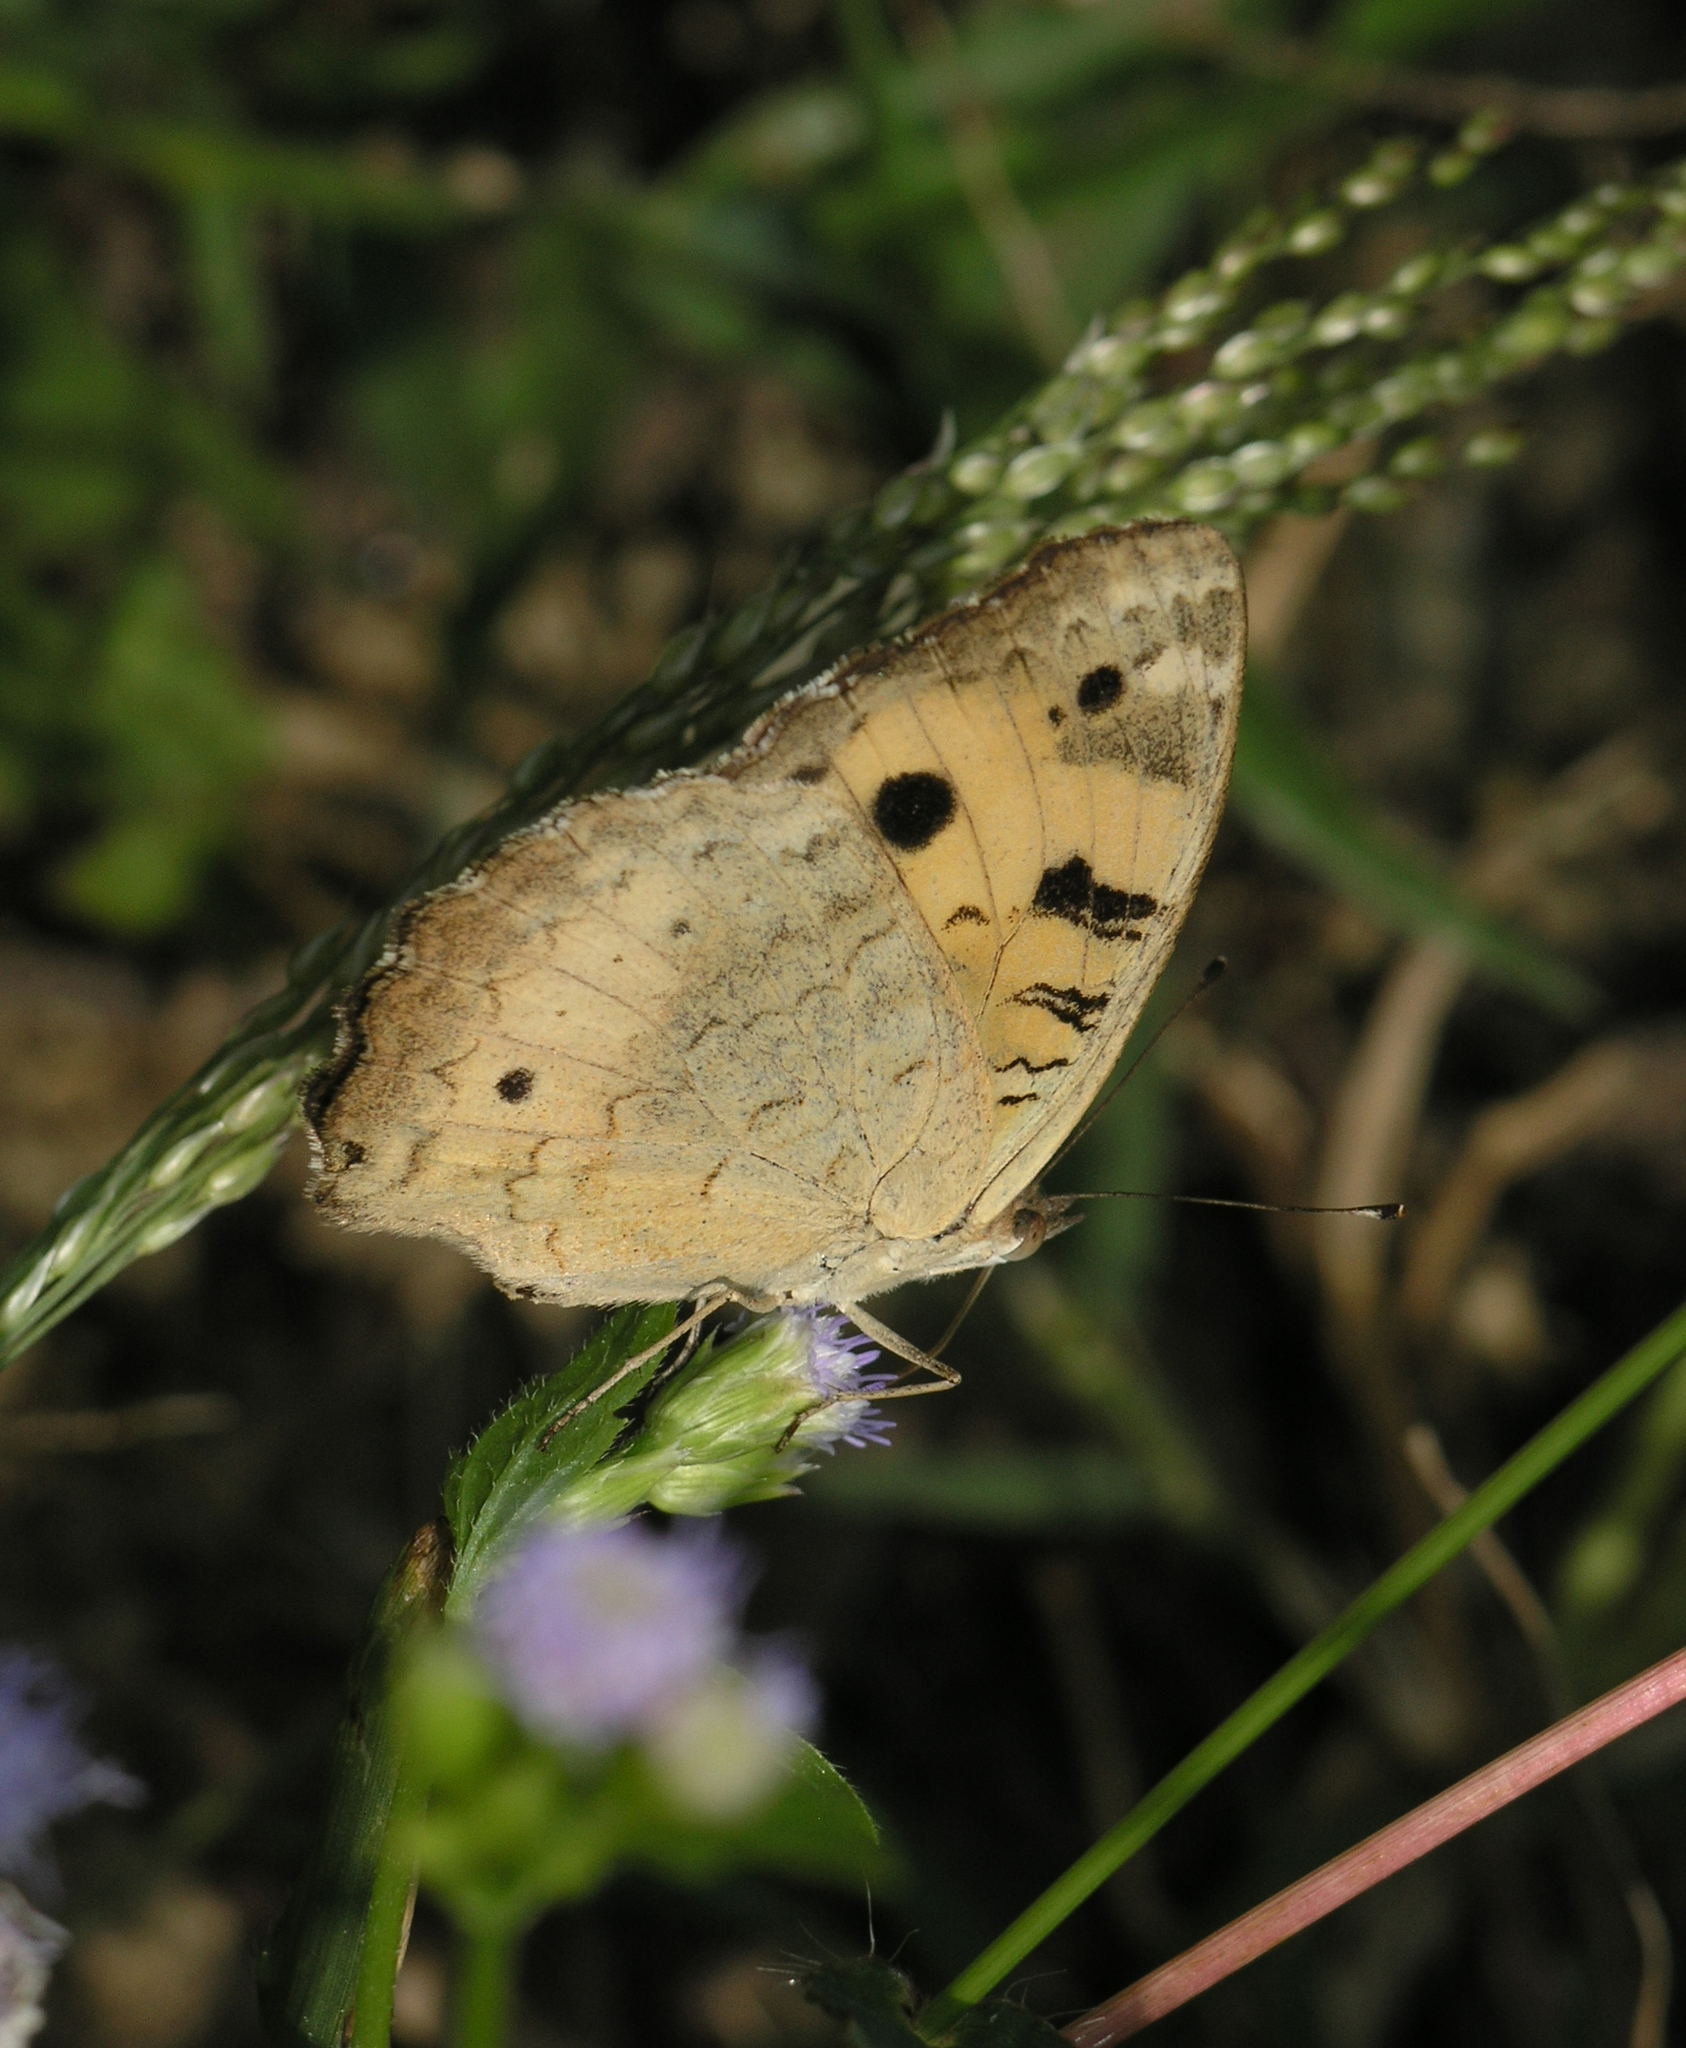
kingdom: Animalia
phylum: Arthropoda
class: Insecta
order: Lepidoptera
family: Nymphalidae
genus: Junonia
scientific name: Junonia hierta
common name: Yellow pansy
